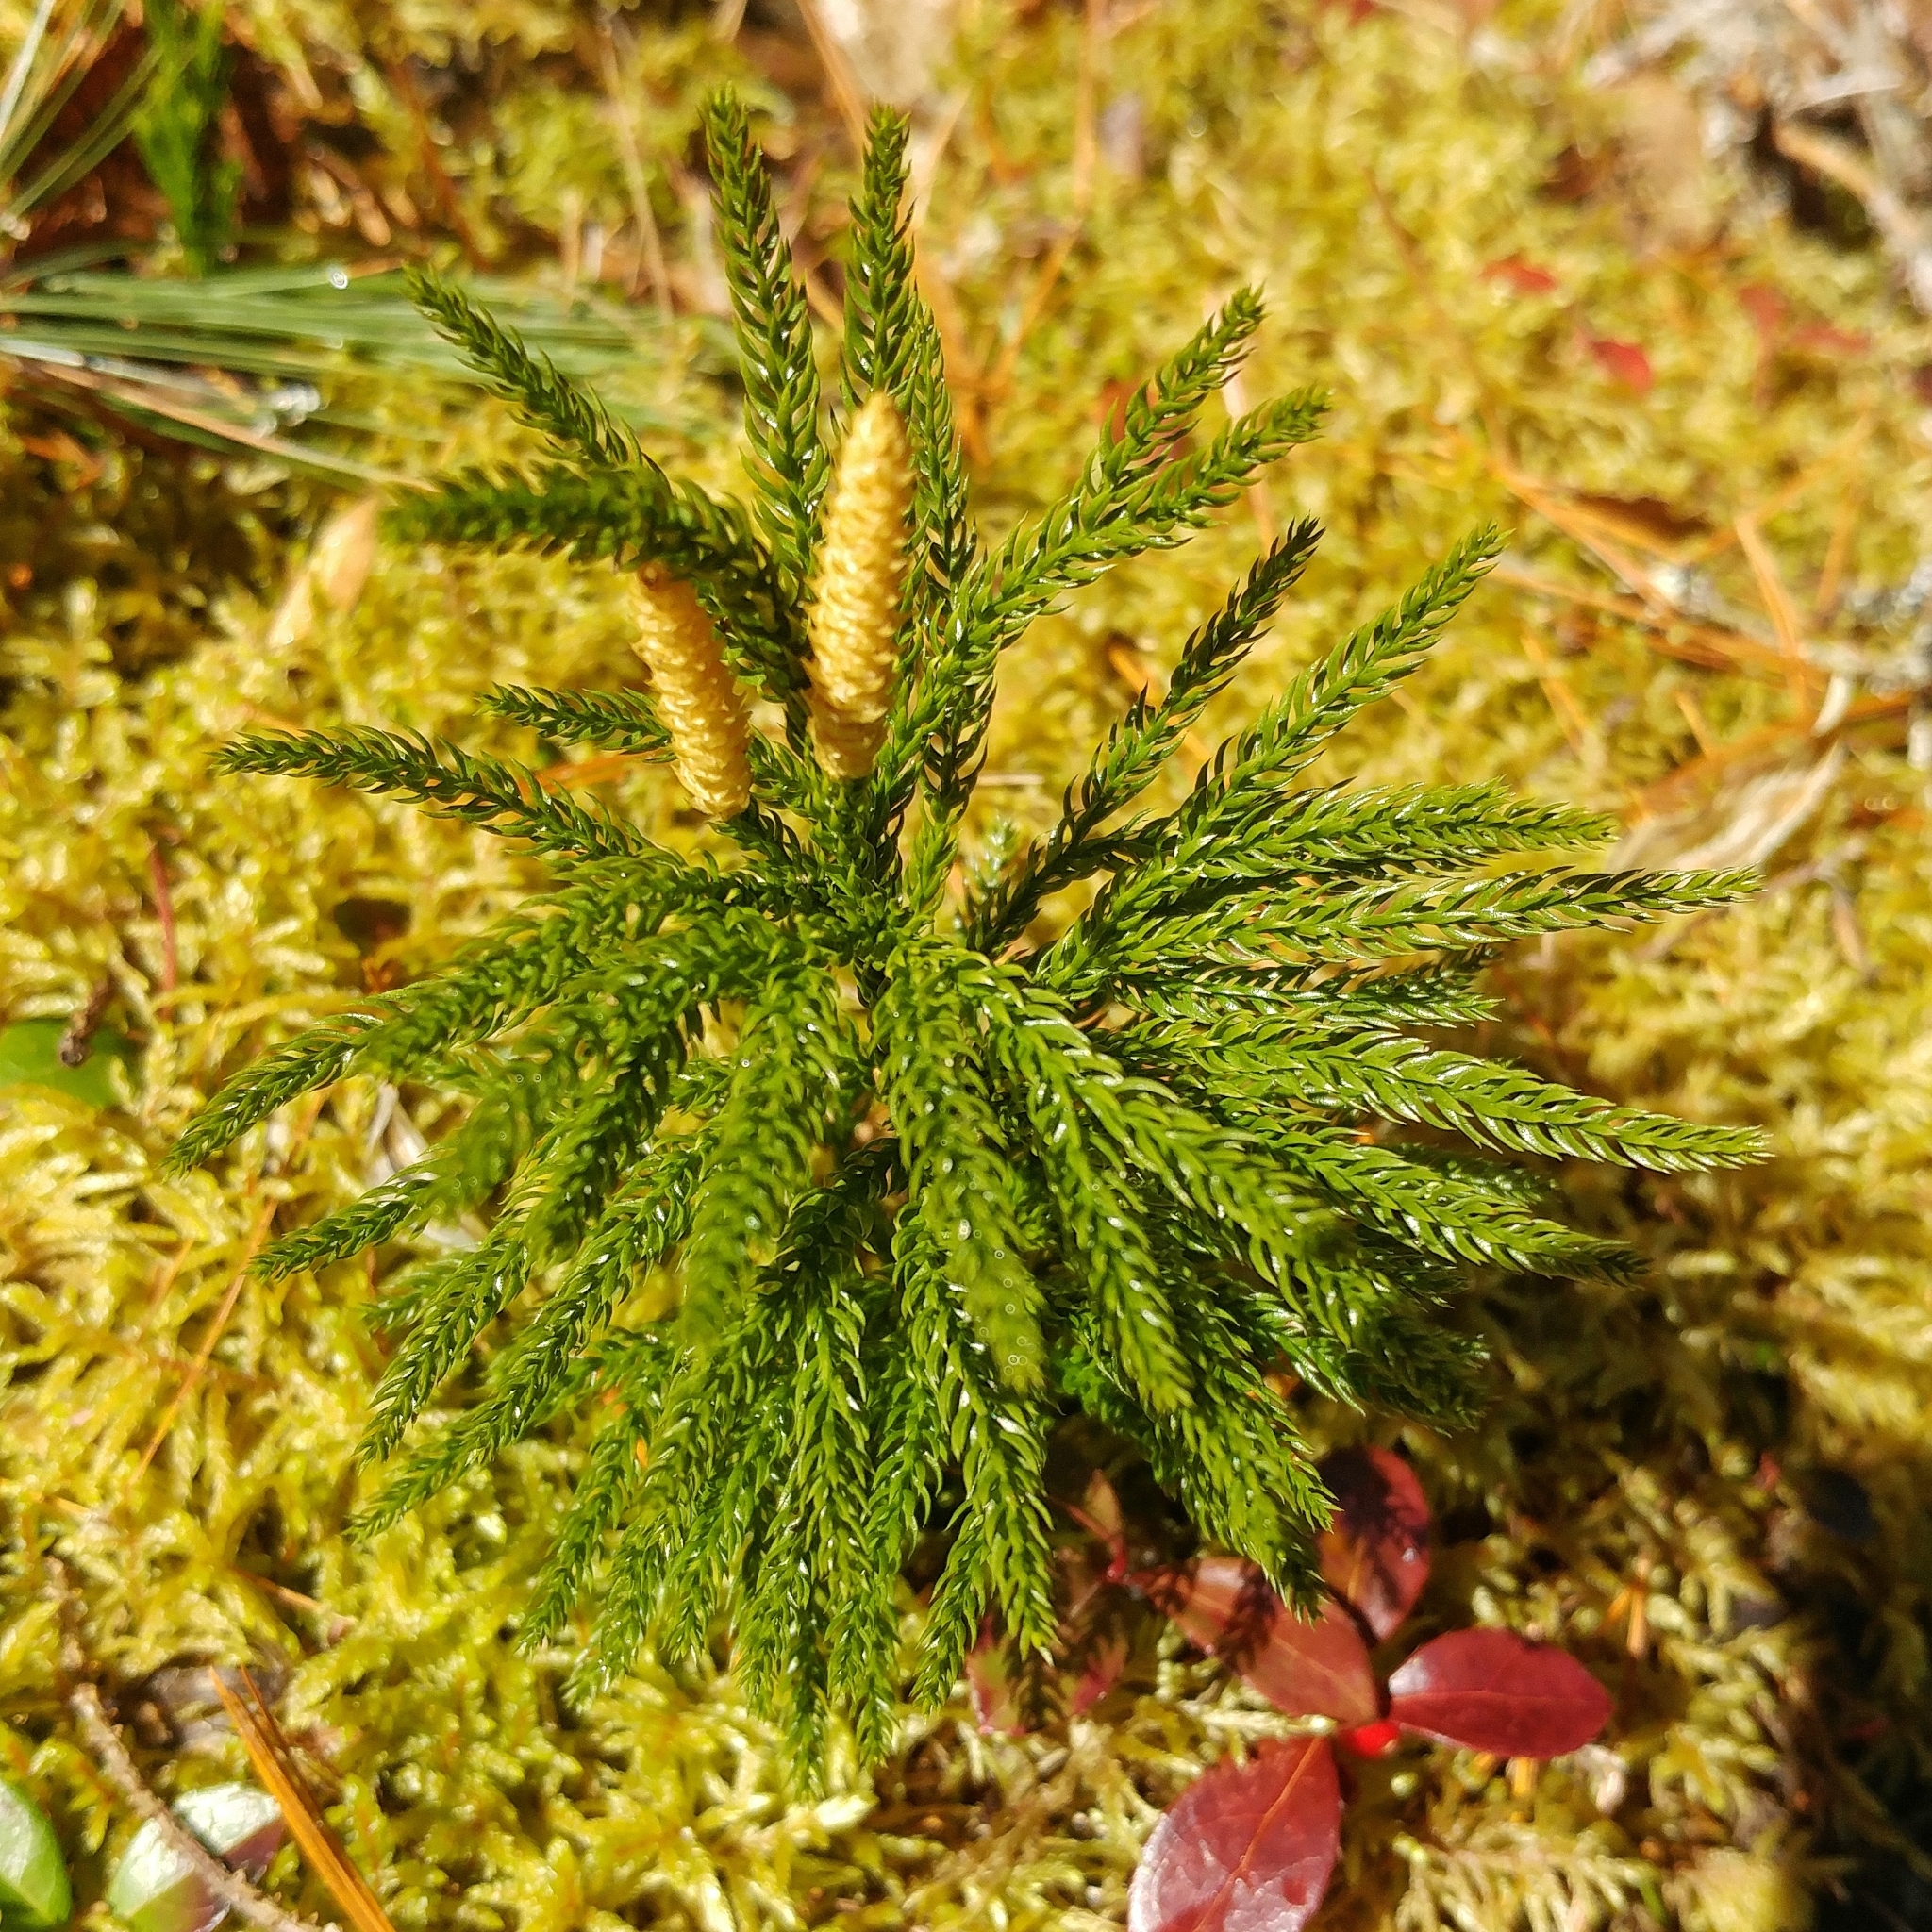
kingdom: Plantae
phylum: Tracheophyta
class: Lycopodiopsida
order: Lycopodiales
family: Lycopodiaceae
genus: Dendrolycopodium
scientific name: Dendrolycopodium obscurum
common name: Common ground-pine
